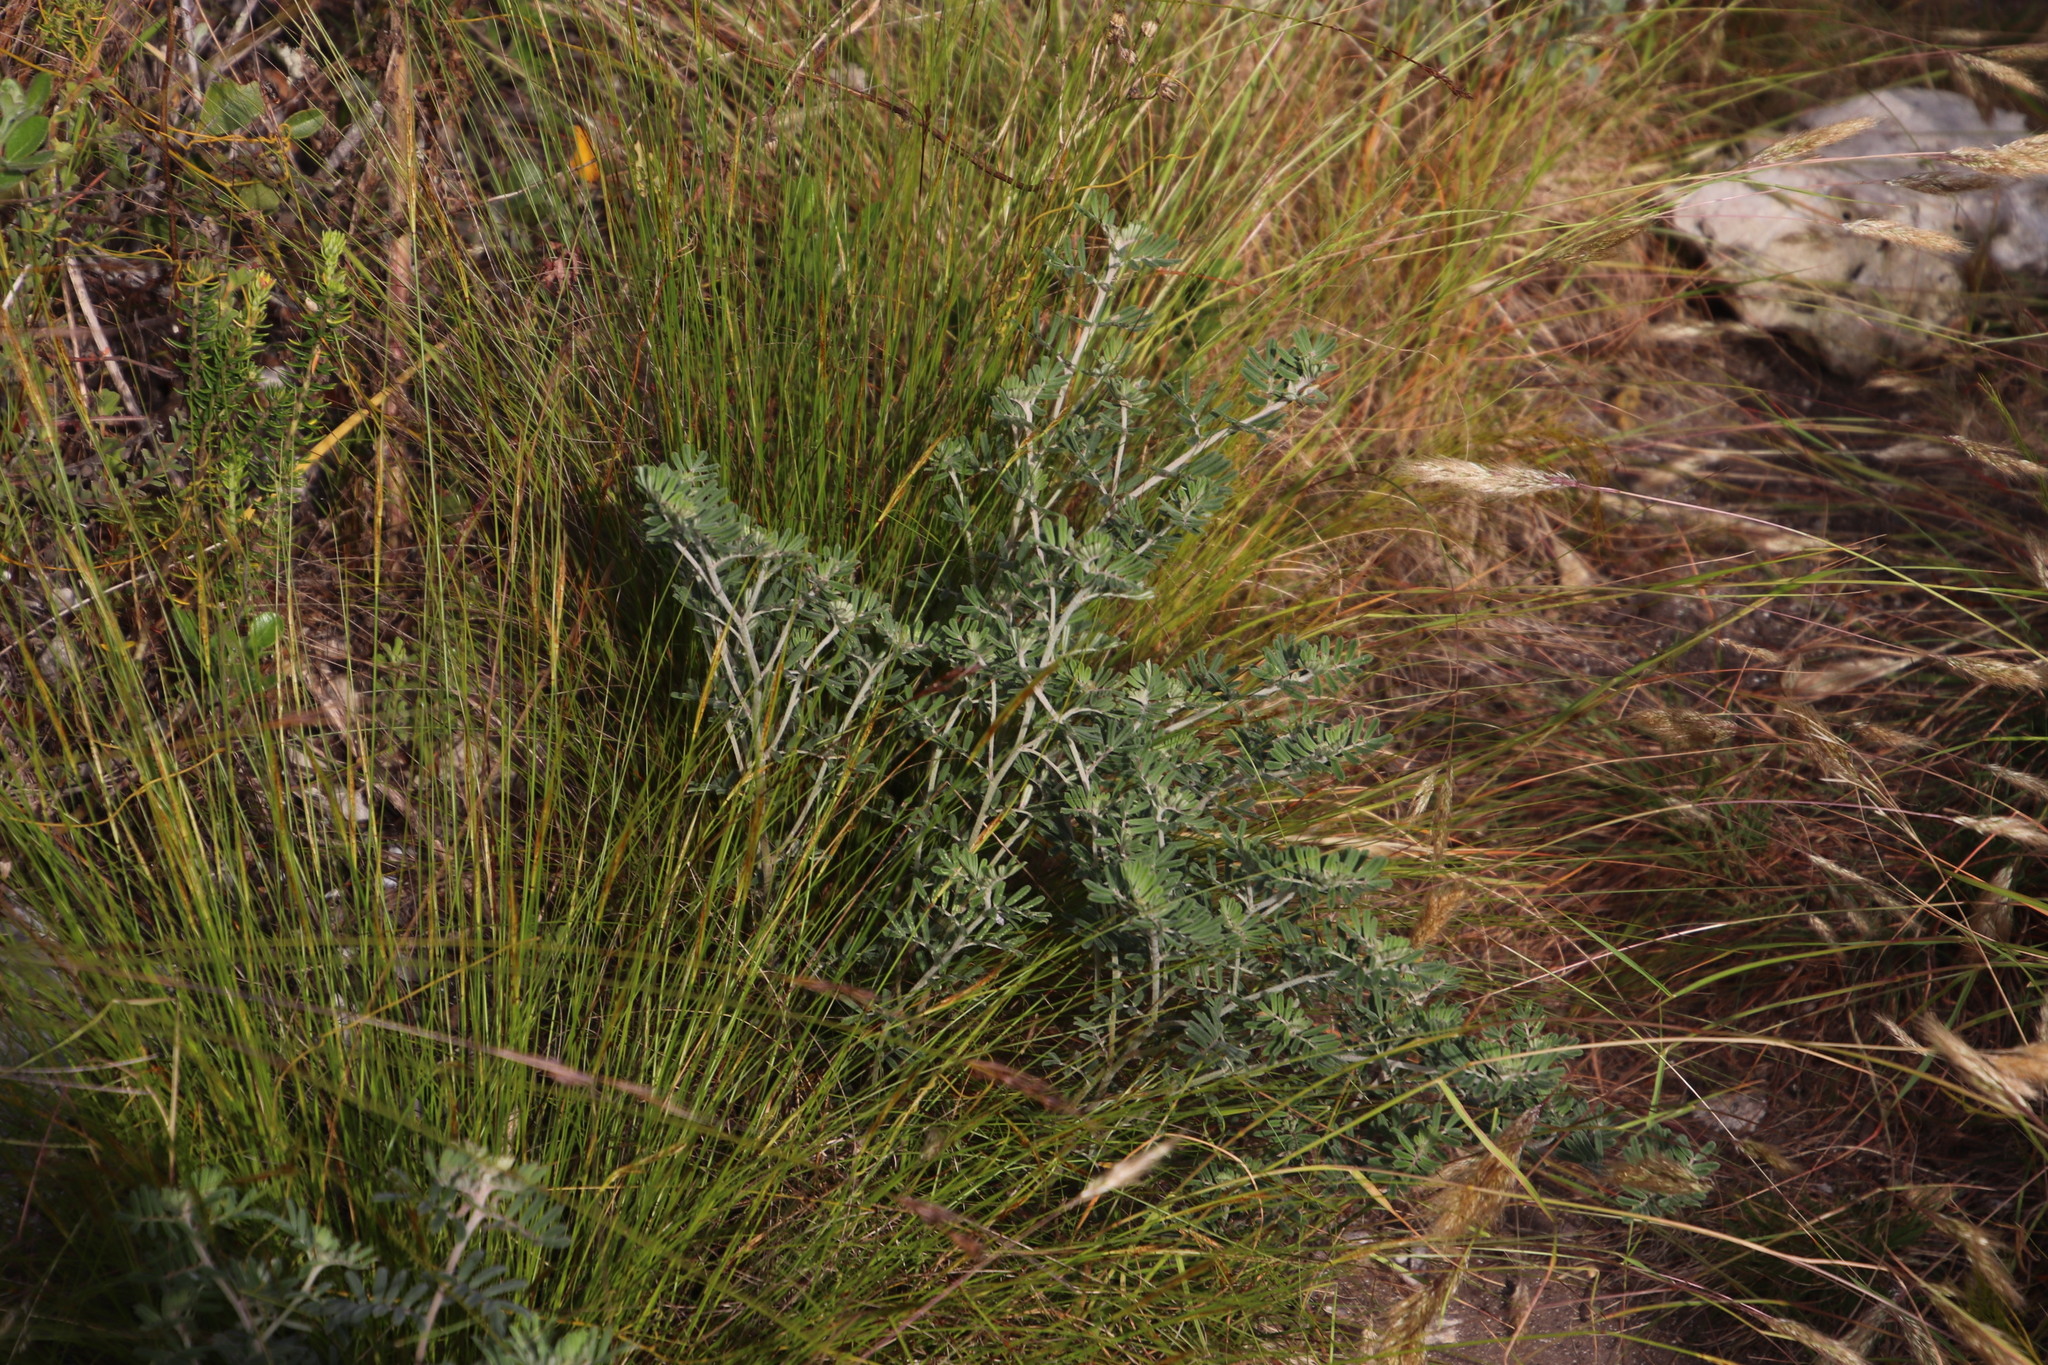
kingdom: Plantae
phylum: Tracheophyta
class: Magnoliopsida
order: Fabales
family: Fabaceae
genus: Indigofera
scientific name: Indigofera brachystachya
